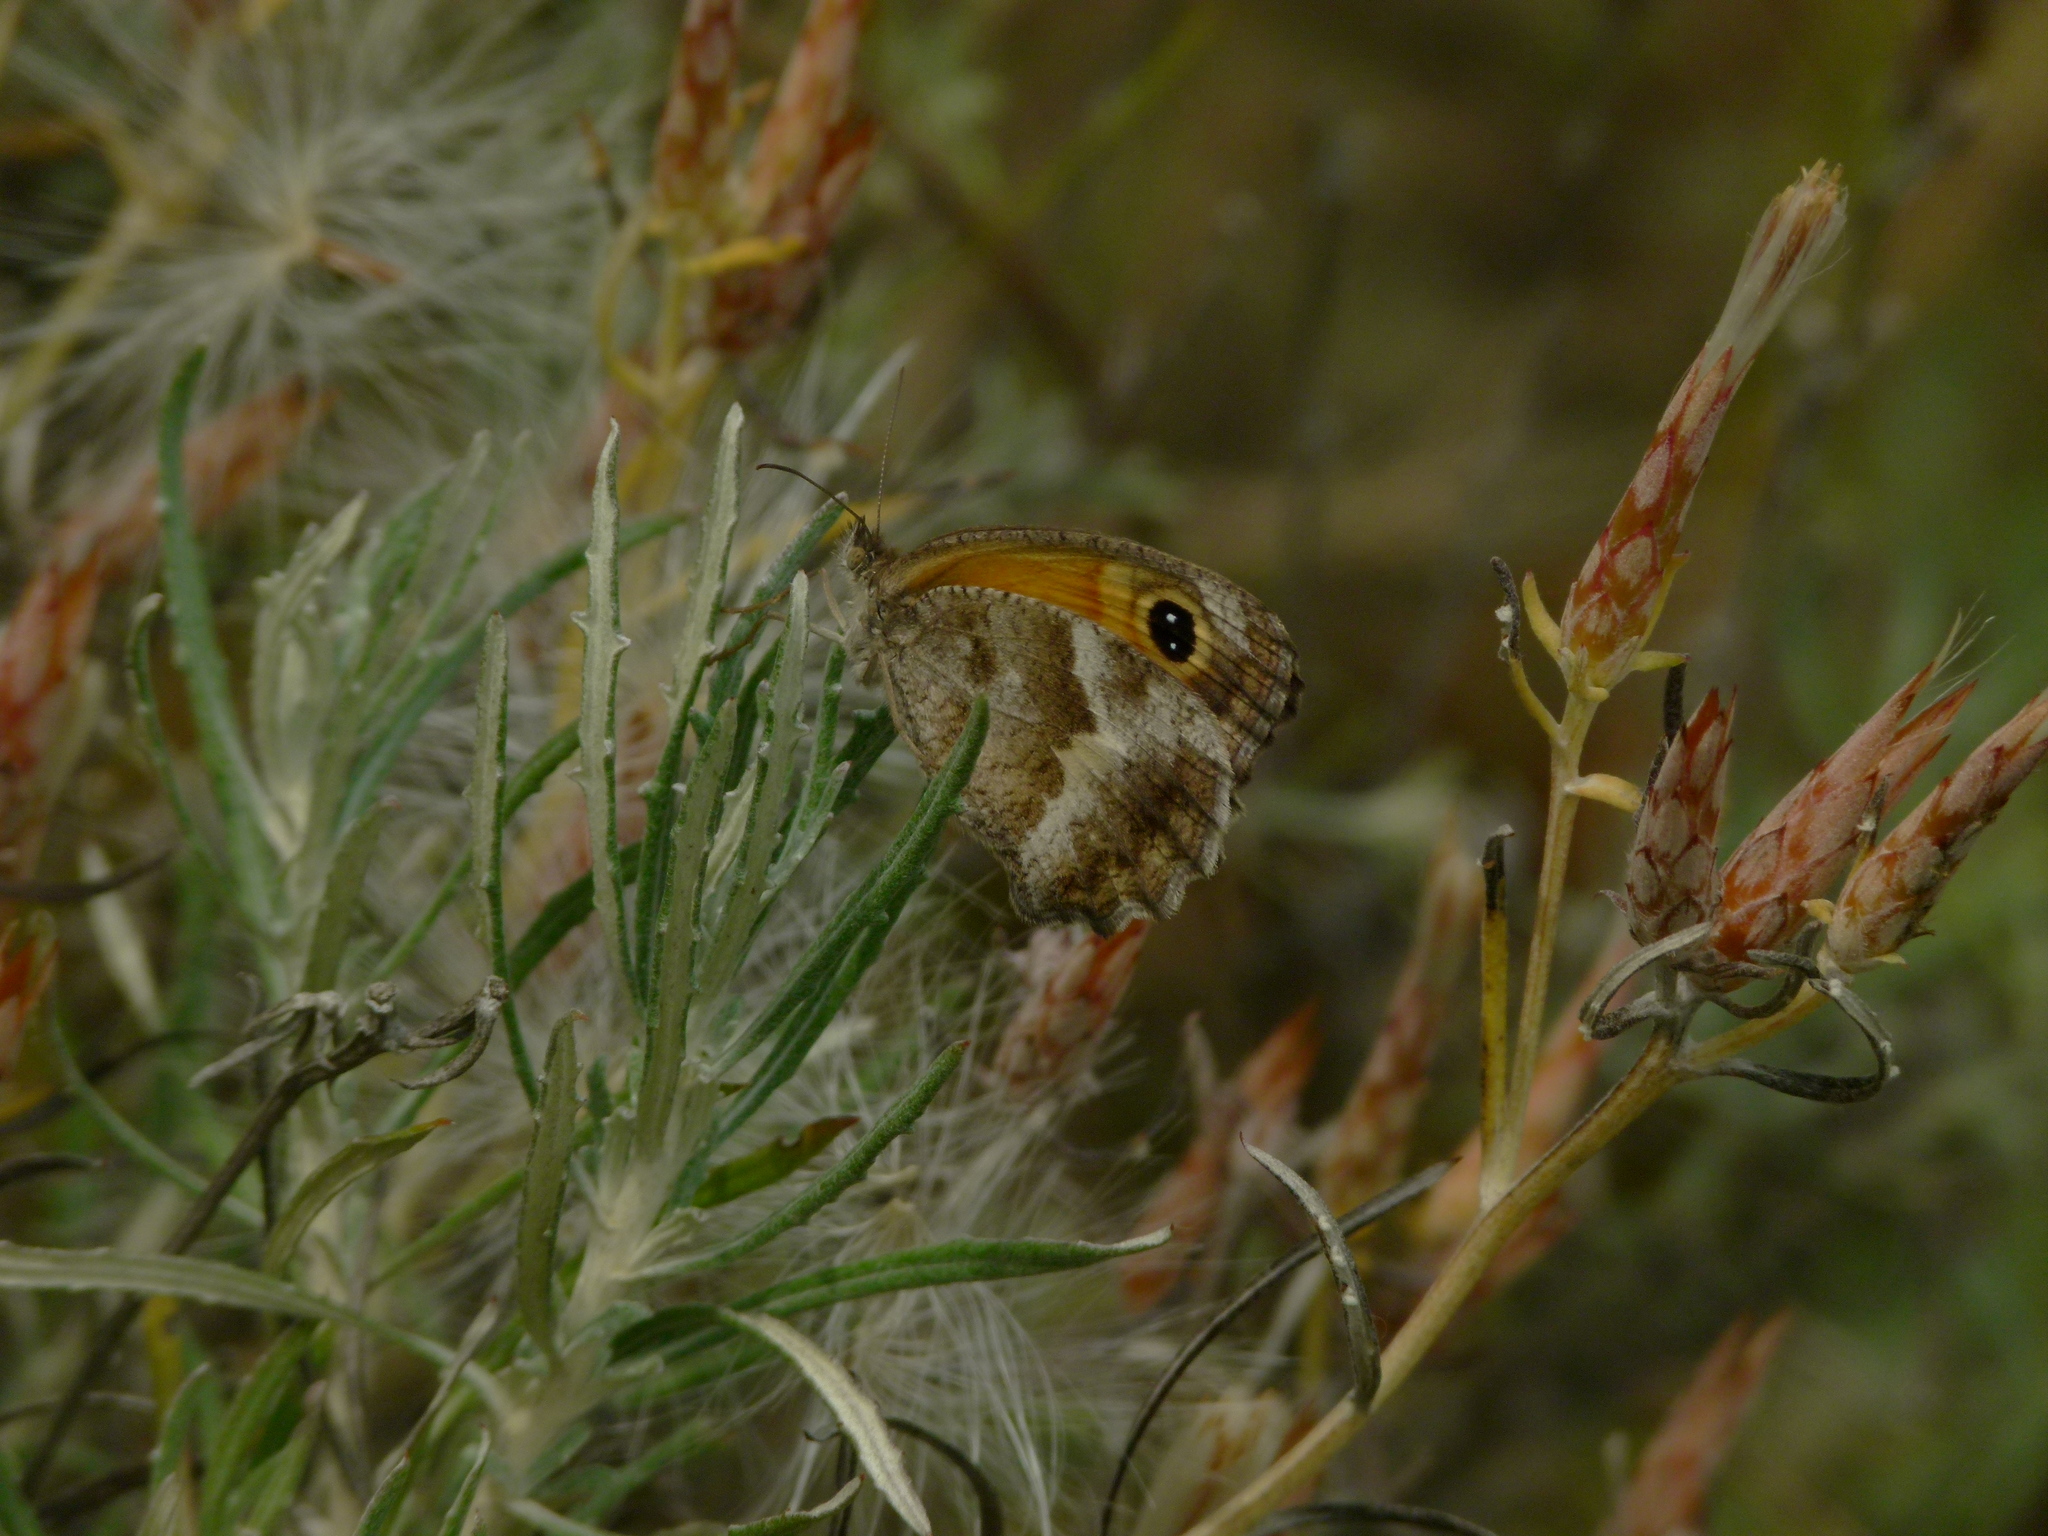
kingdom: Animalia
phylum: Arthropoda
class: Insecta
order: Lepidoptera
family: Nymphalidae
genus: Pyronia
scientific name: Pyronia cecilia
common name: Southern gatekeeper
